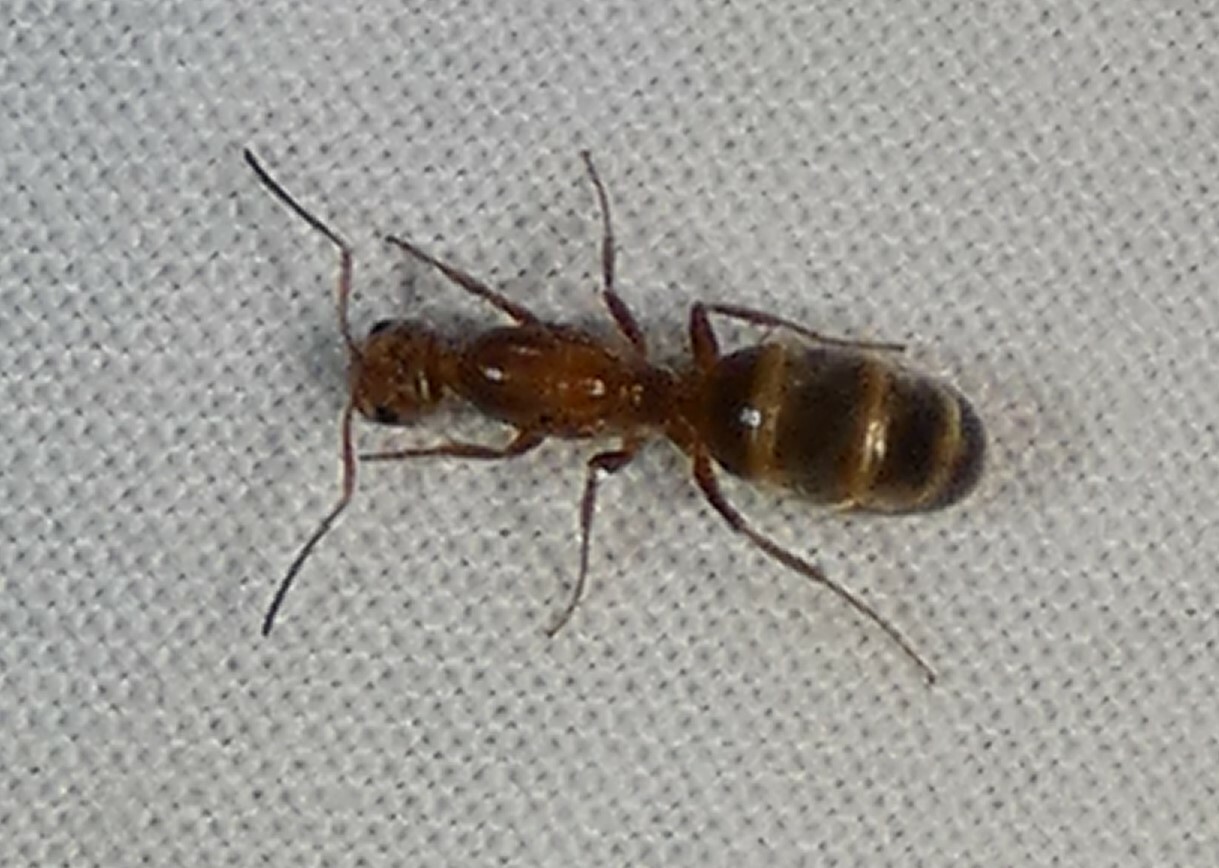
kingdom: Animalia
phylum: Arthropoda
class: Insecta
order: Hymenoptera
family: Formicidae
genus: Dorymyrmex
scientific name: Dorymyrmex bureni
